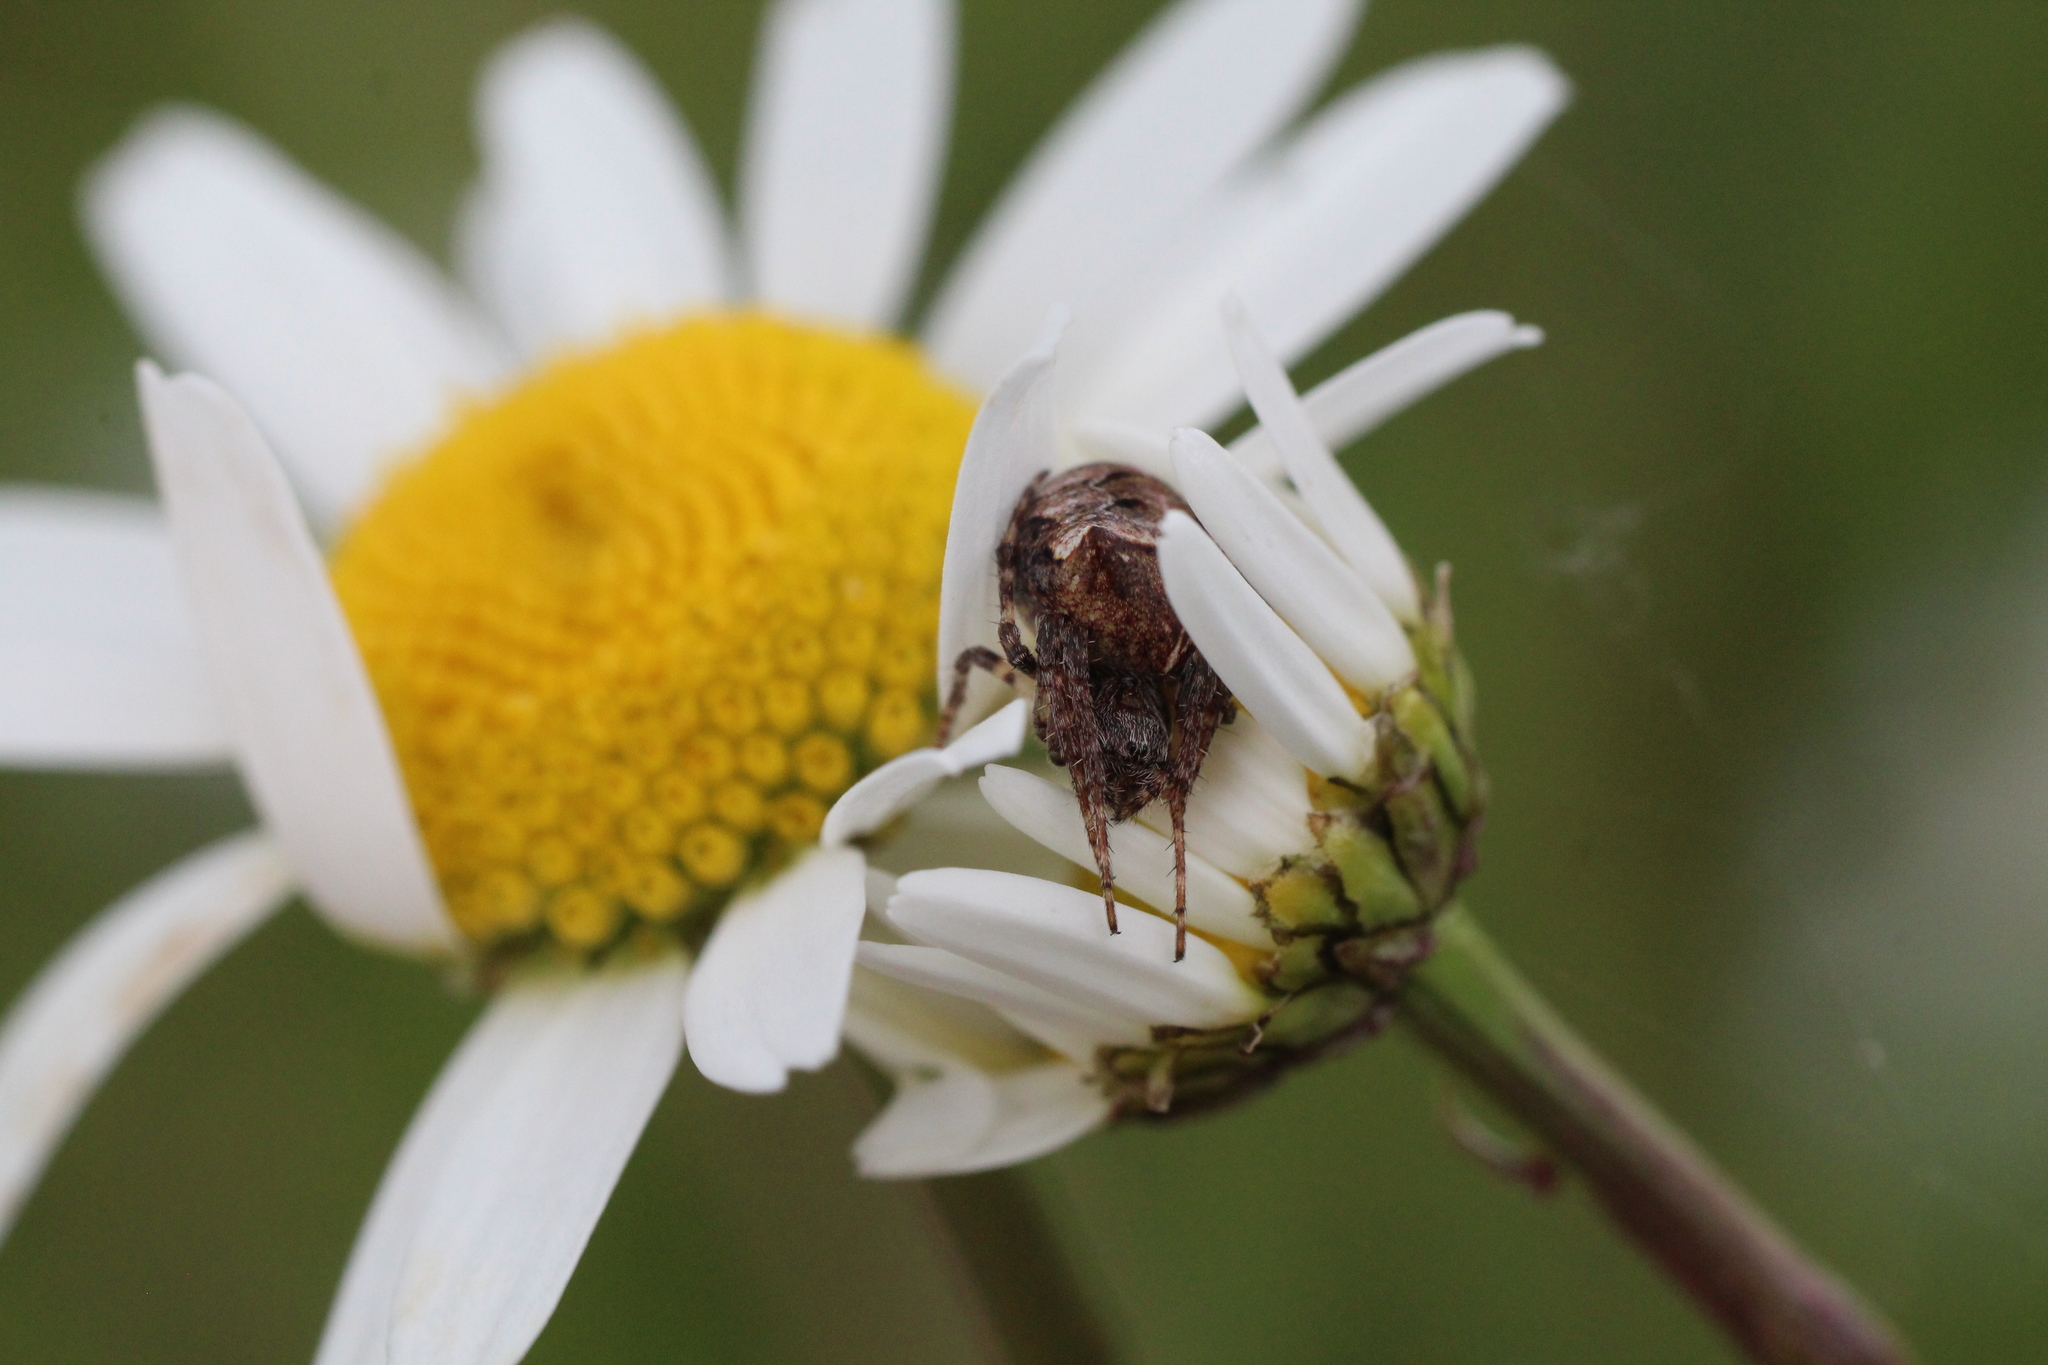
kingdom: Animalia
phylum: Arthropoda
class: Arachnida
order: Araneae
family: Araneidae
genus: Gibbaranea
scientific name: Gibbaranea bituberculata
